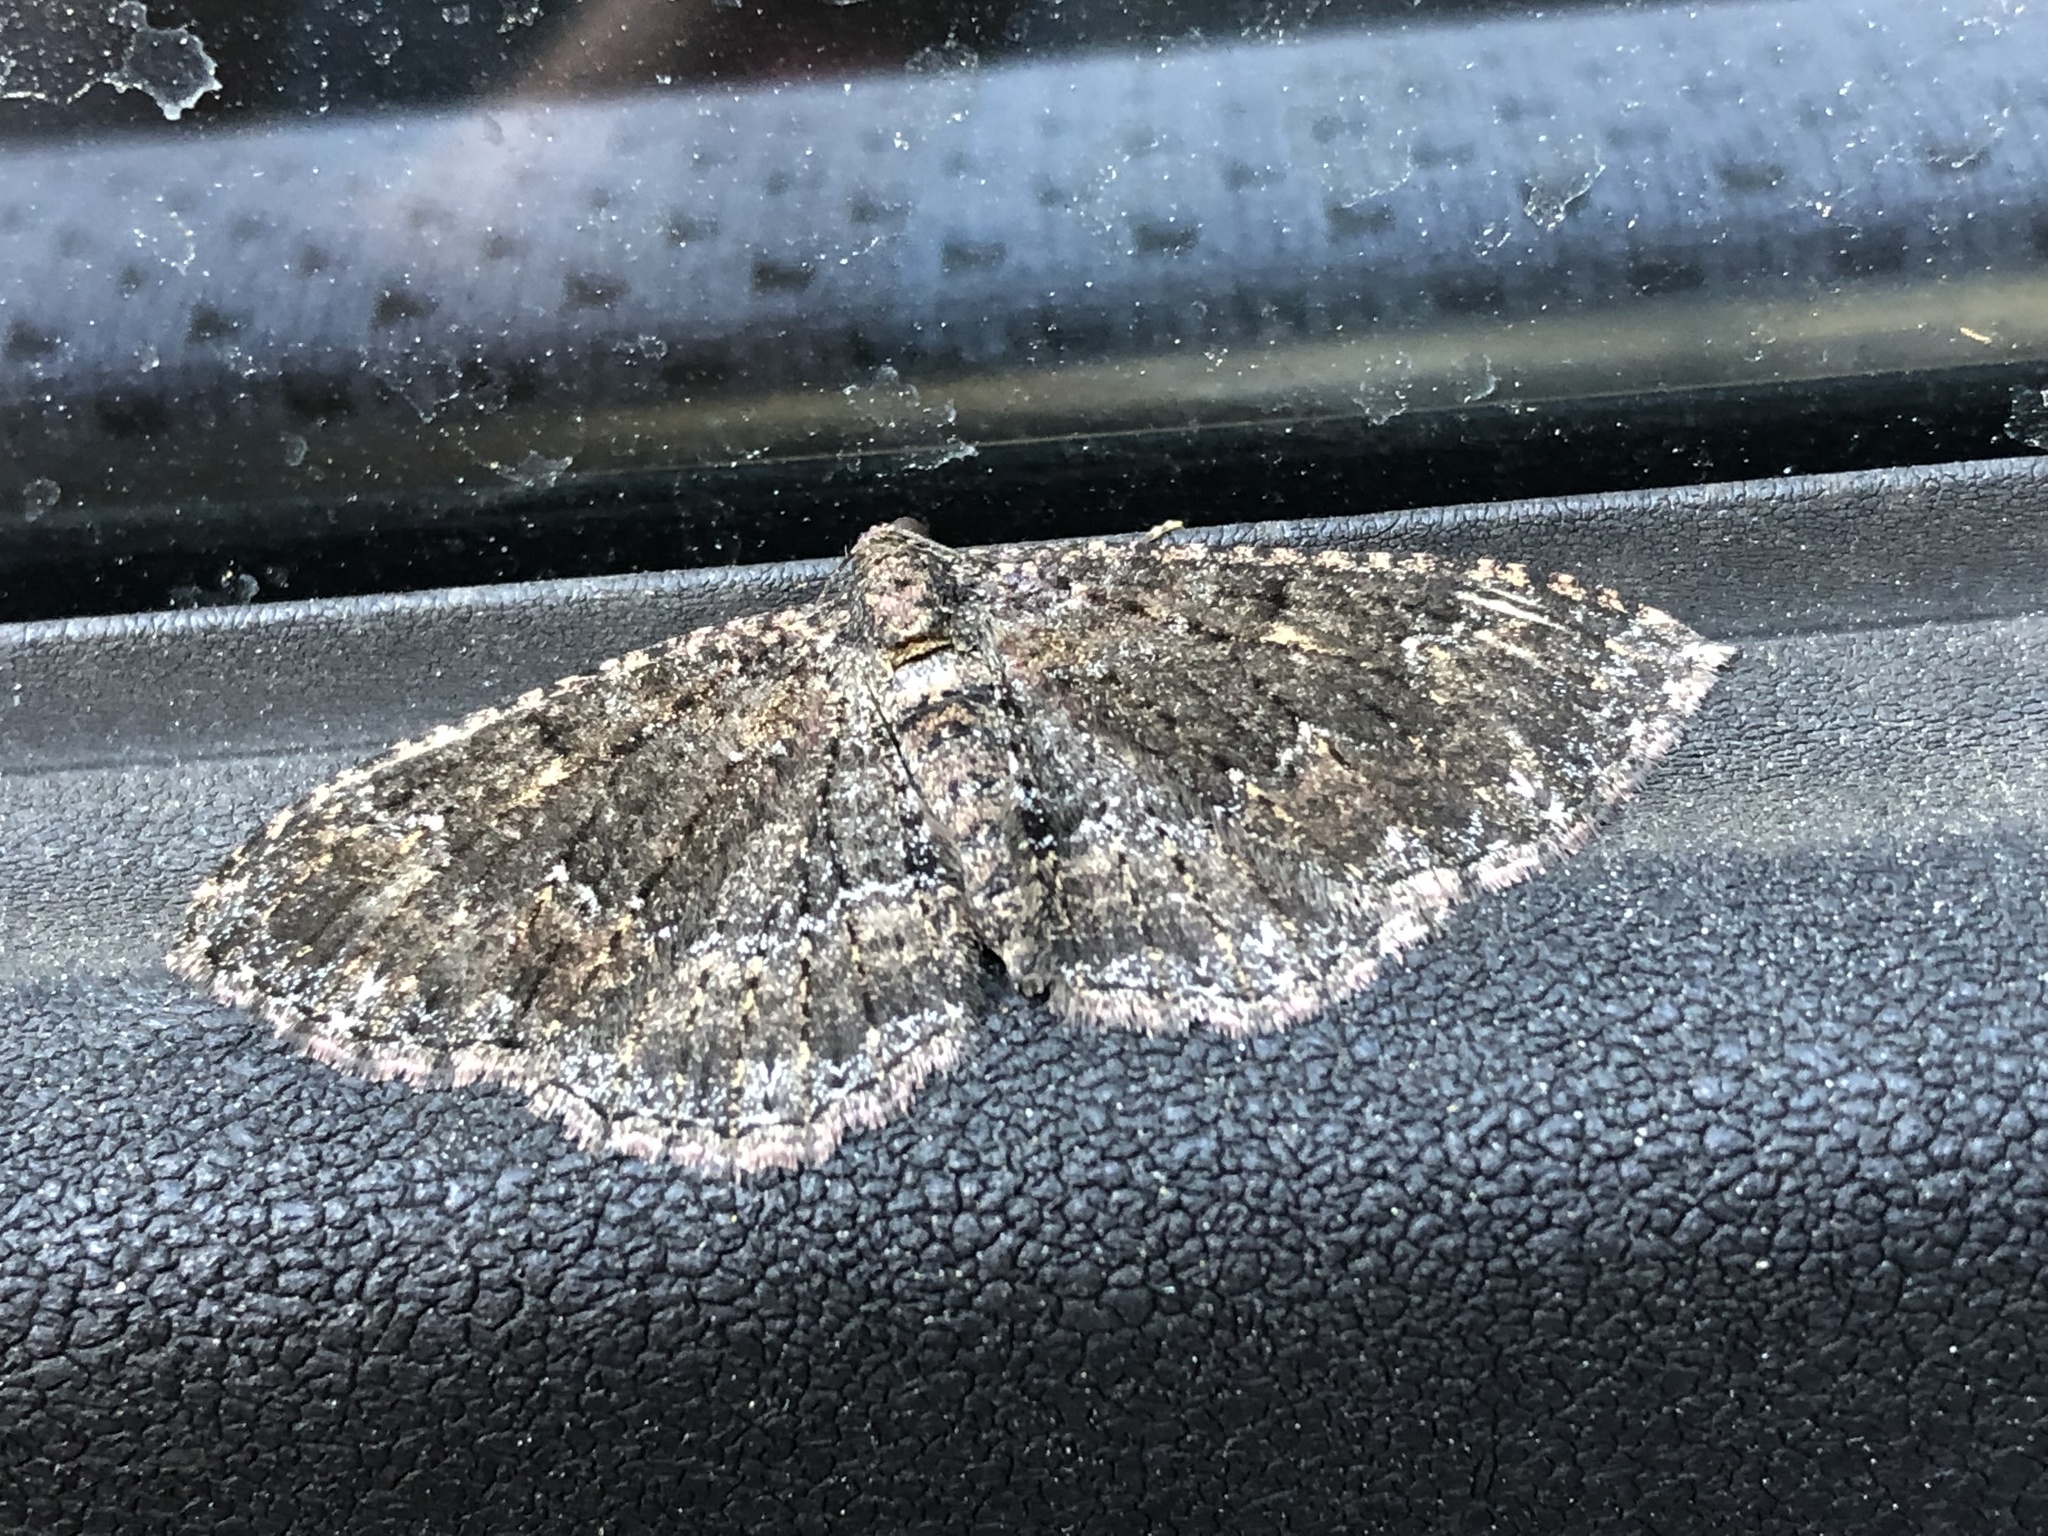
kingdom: Animalia
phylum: Arthropoda
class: Insecta
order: Lepidoptera
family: Geometridae
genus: Disclisioprocta
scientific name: Disclisioprocta stellata
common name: Somber carpet
